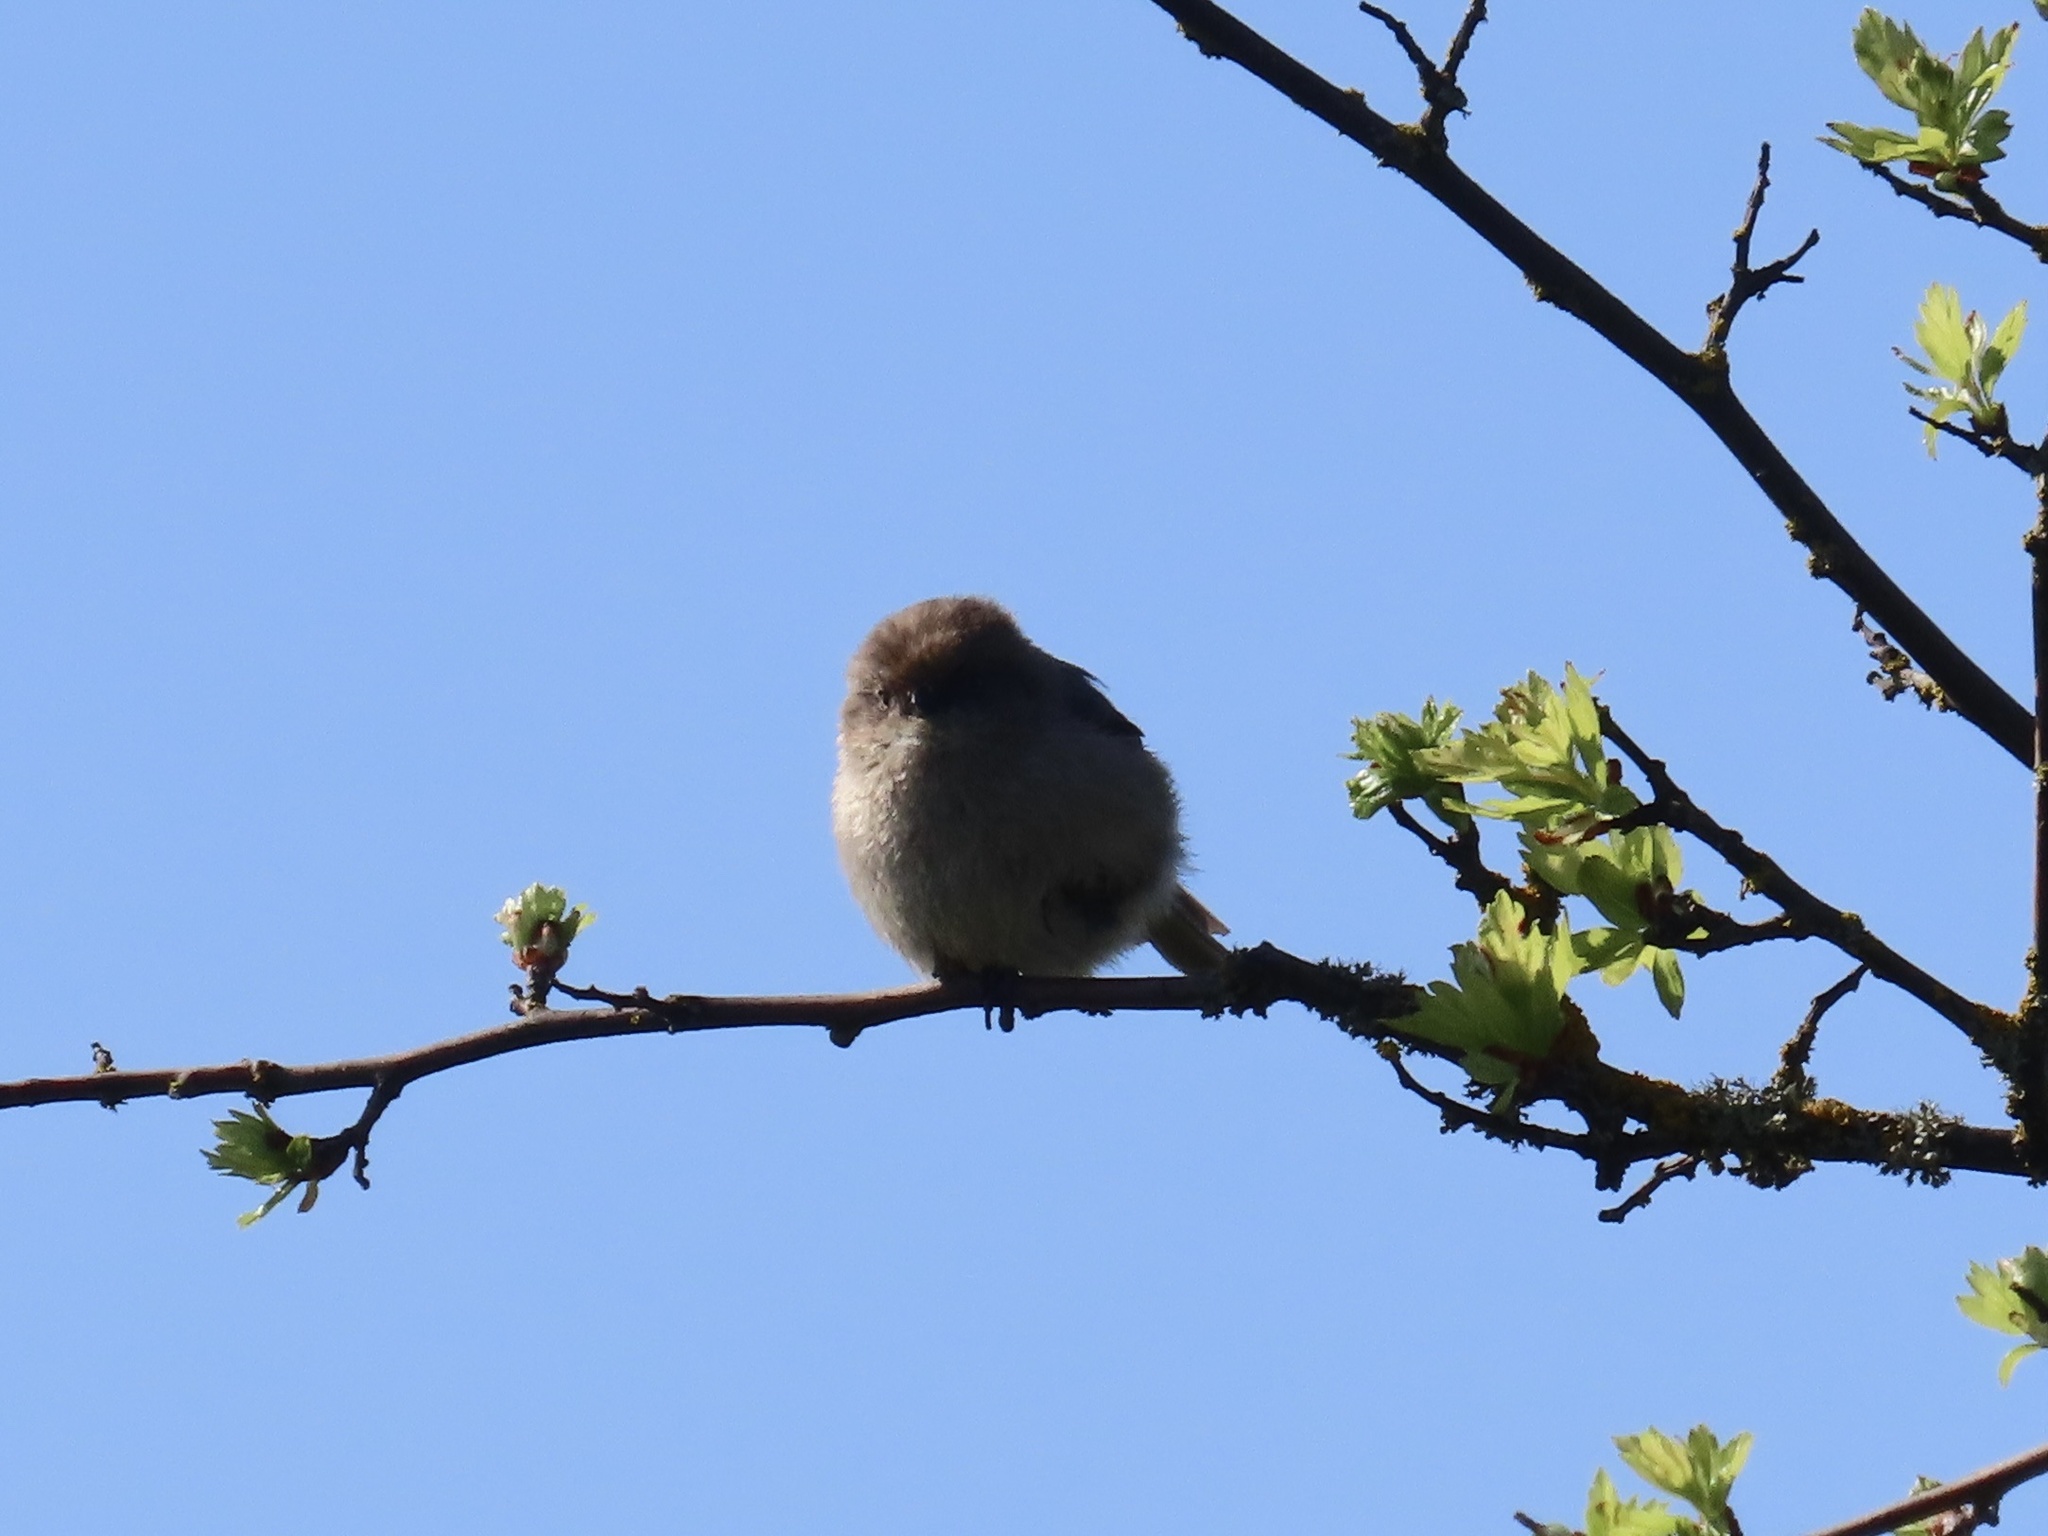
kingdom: Animalia
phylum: Chordata
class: Aves
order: Passeriformes
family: Aegithalidae
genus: Psaltriparus
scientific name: Psaltriparus minimus
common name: American bushtit
